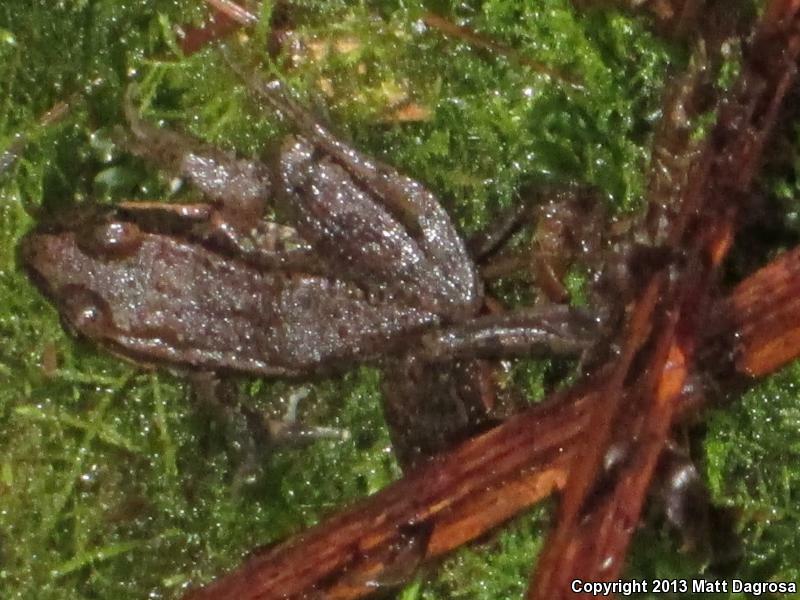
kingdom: Animalia
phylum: Chordata
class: Amphibia
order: Anura
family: Ranidae
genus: Rana
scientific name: Rana aurora
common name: Red-legged frog
